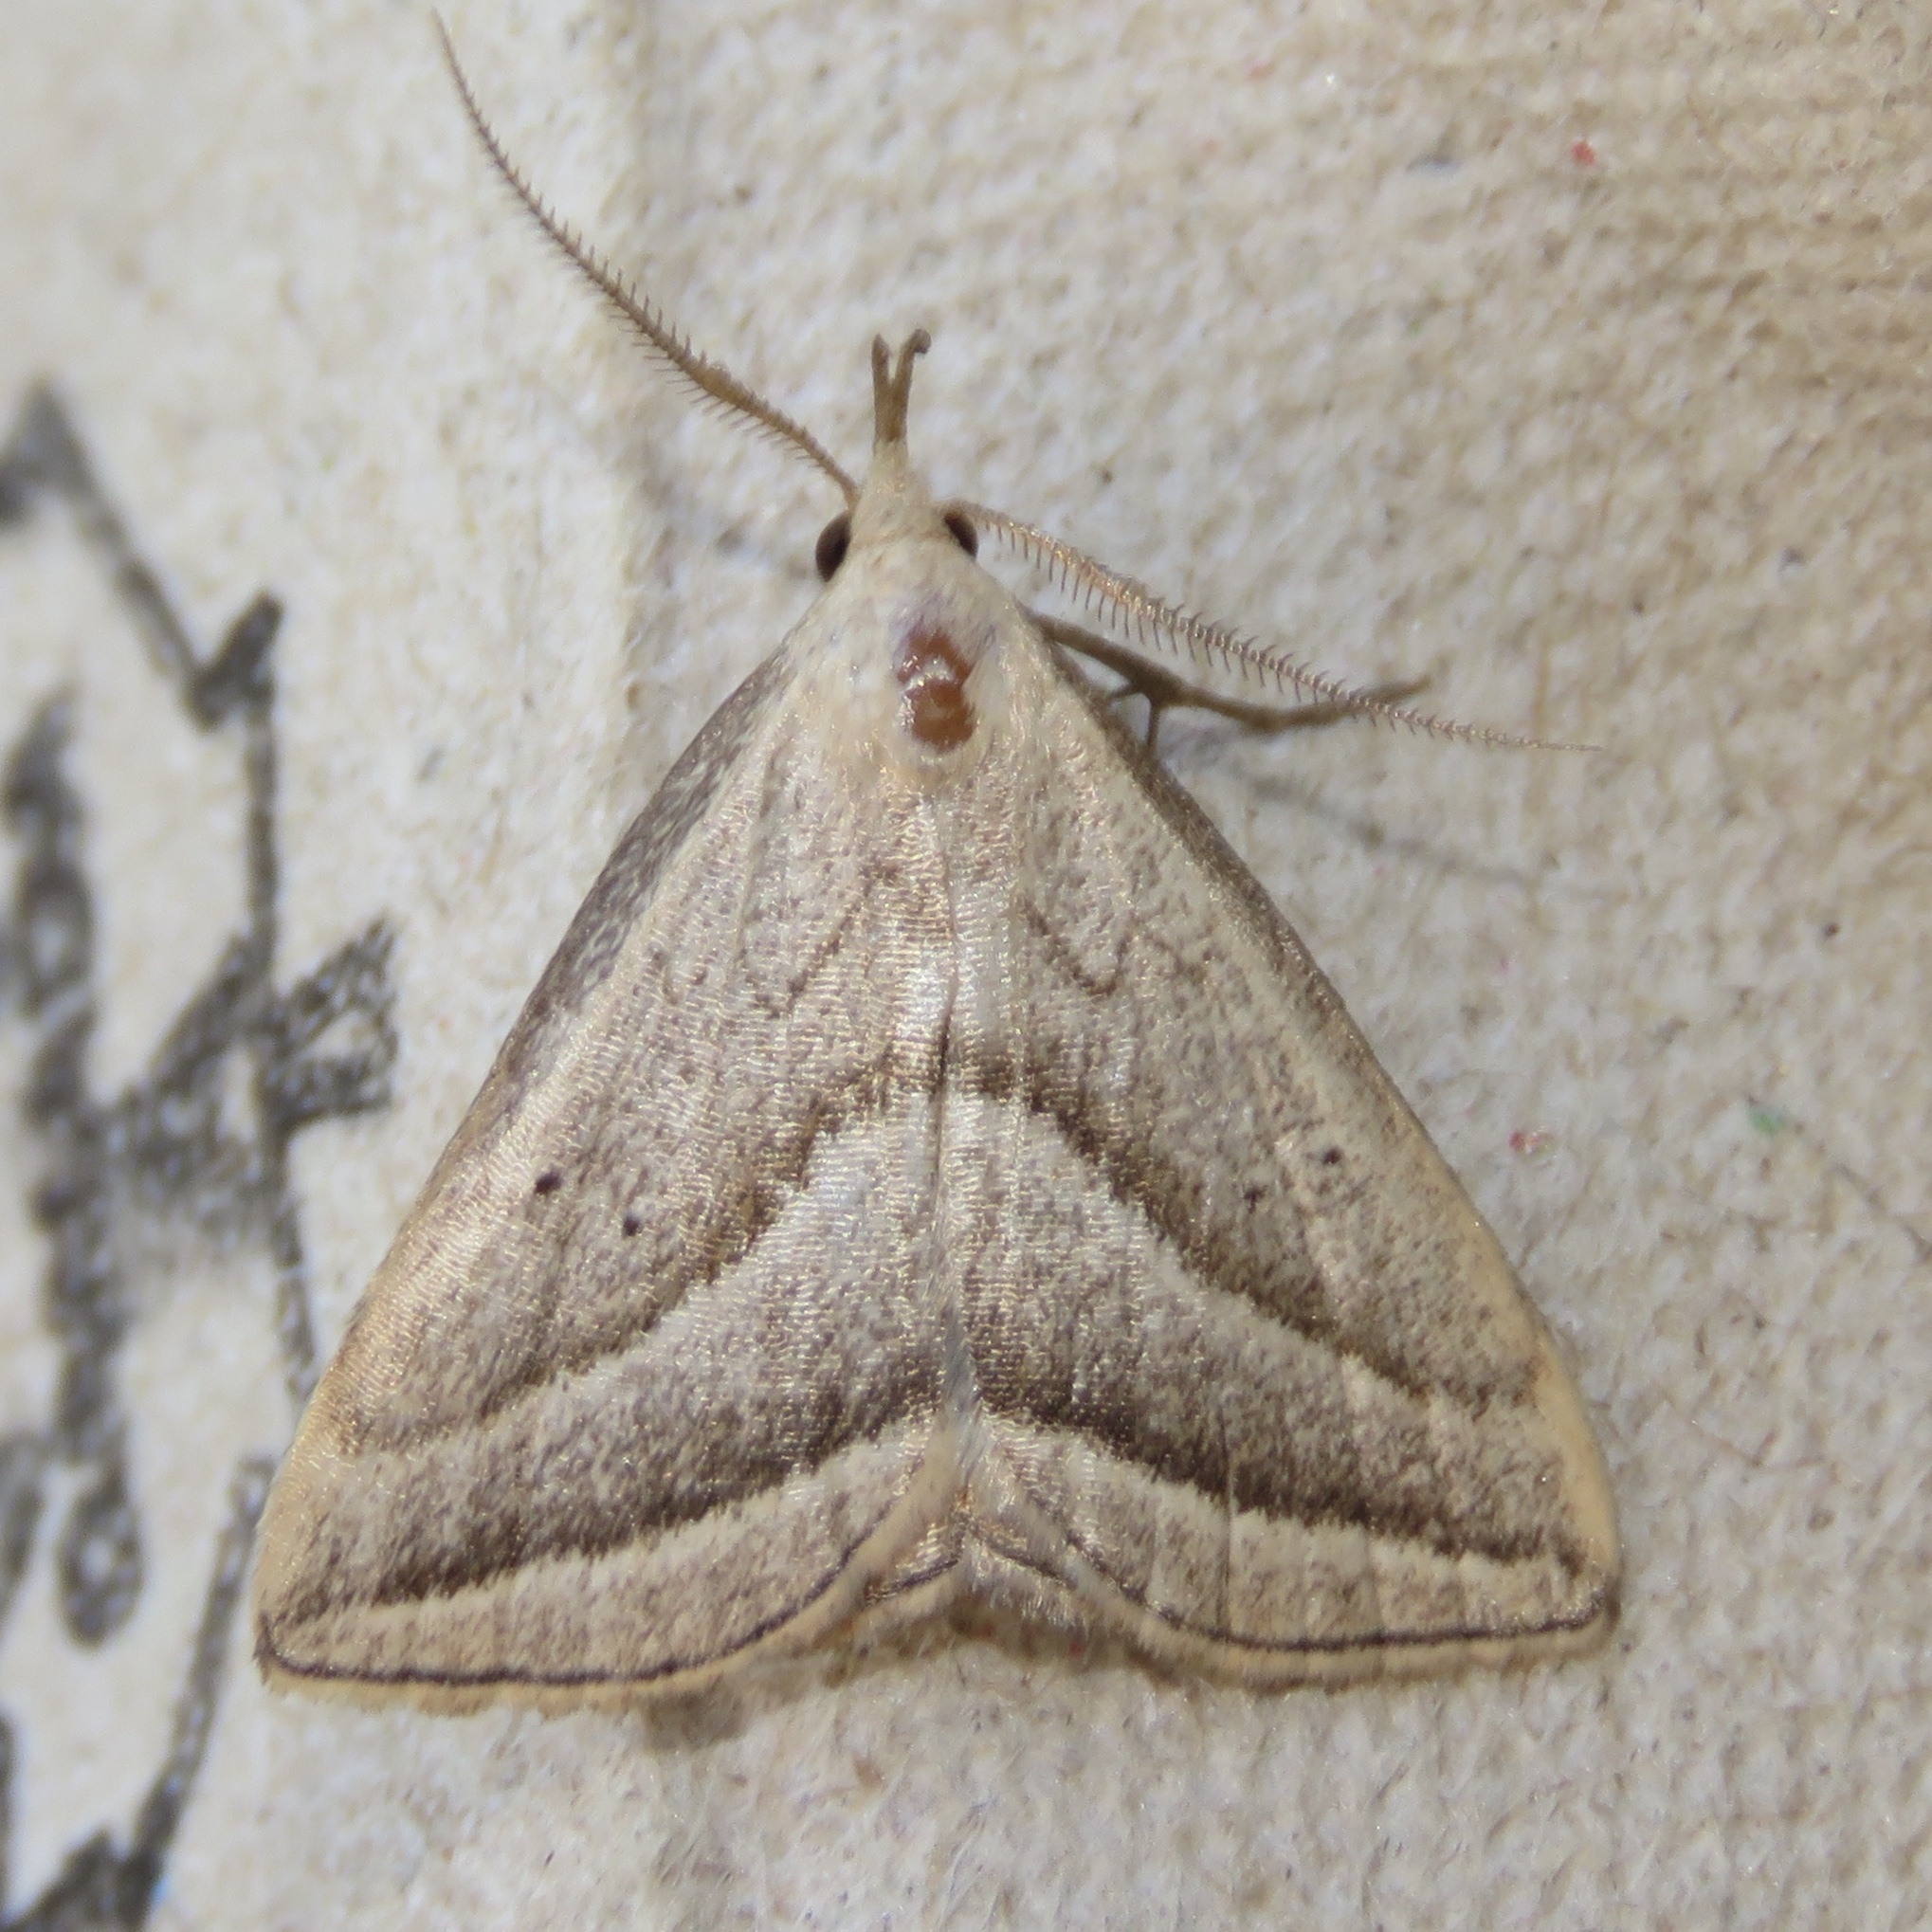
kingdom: Animalia
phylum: Arthropoda
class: Insecta
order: Lepidoptera
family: Erebidae
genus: Macrochilo
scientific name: Macrochilo absorptalis
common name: Slant-lined owlet
